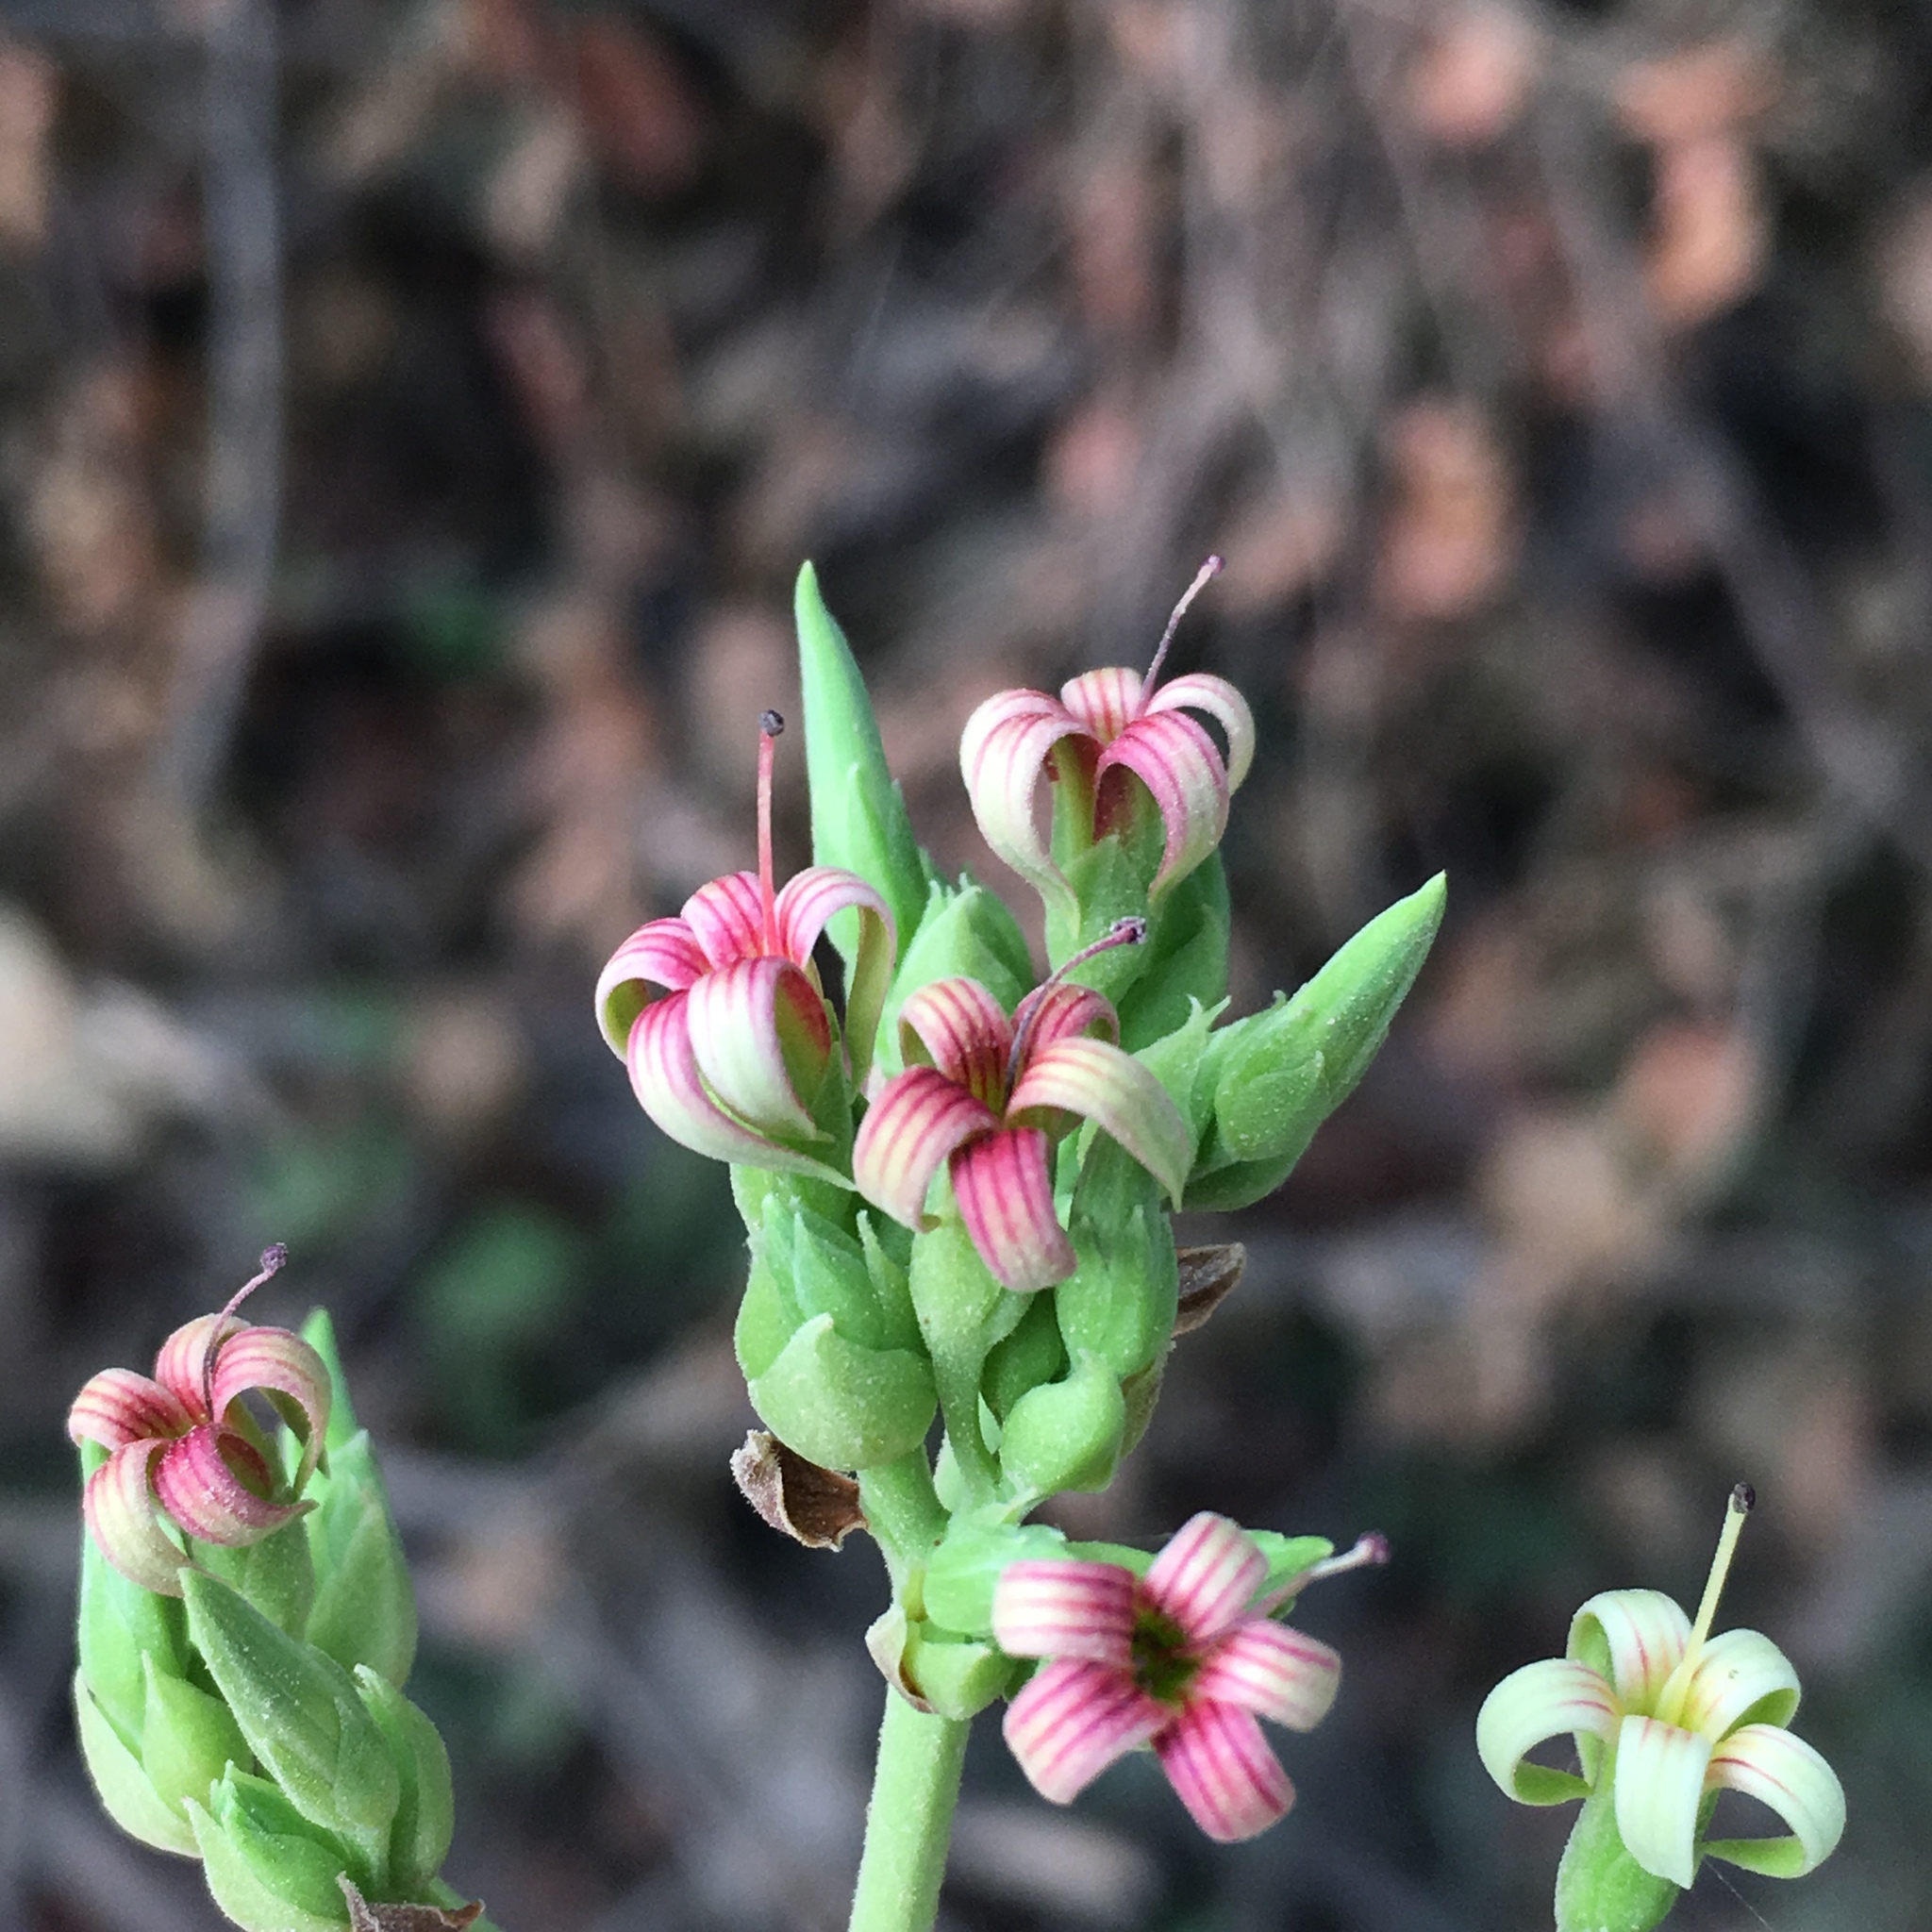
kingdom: Plantae
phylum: Tracheophyta
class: Magnoliopsida
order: Sapindales
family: Anacardiaceae
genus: Anacardium
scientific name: Anacardium occidentale
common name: Cashew
